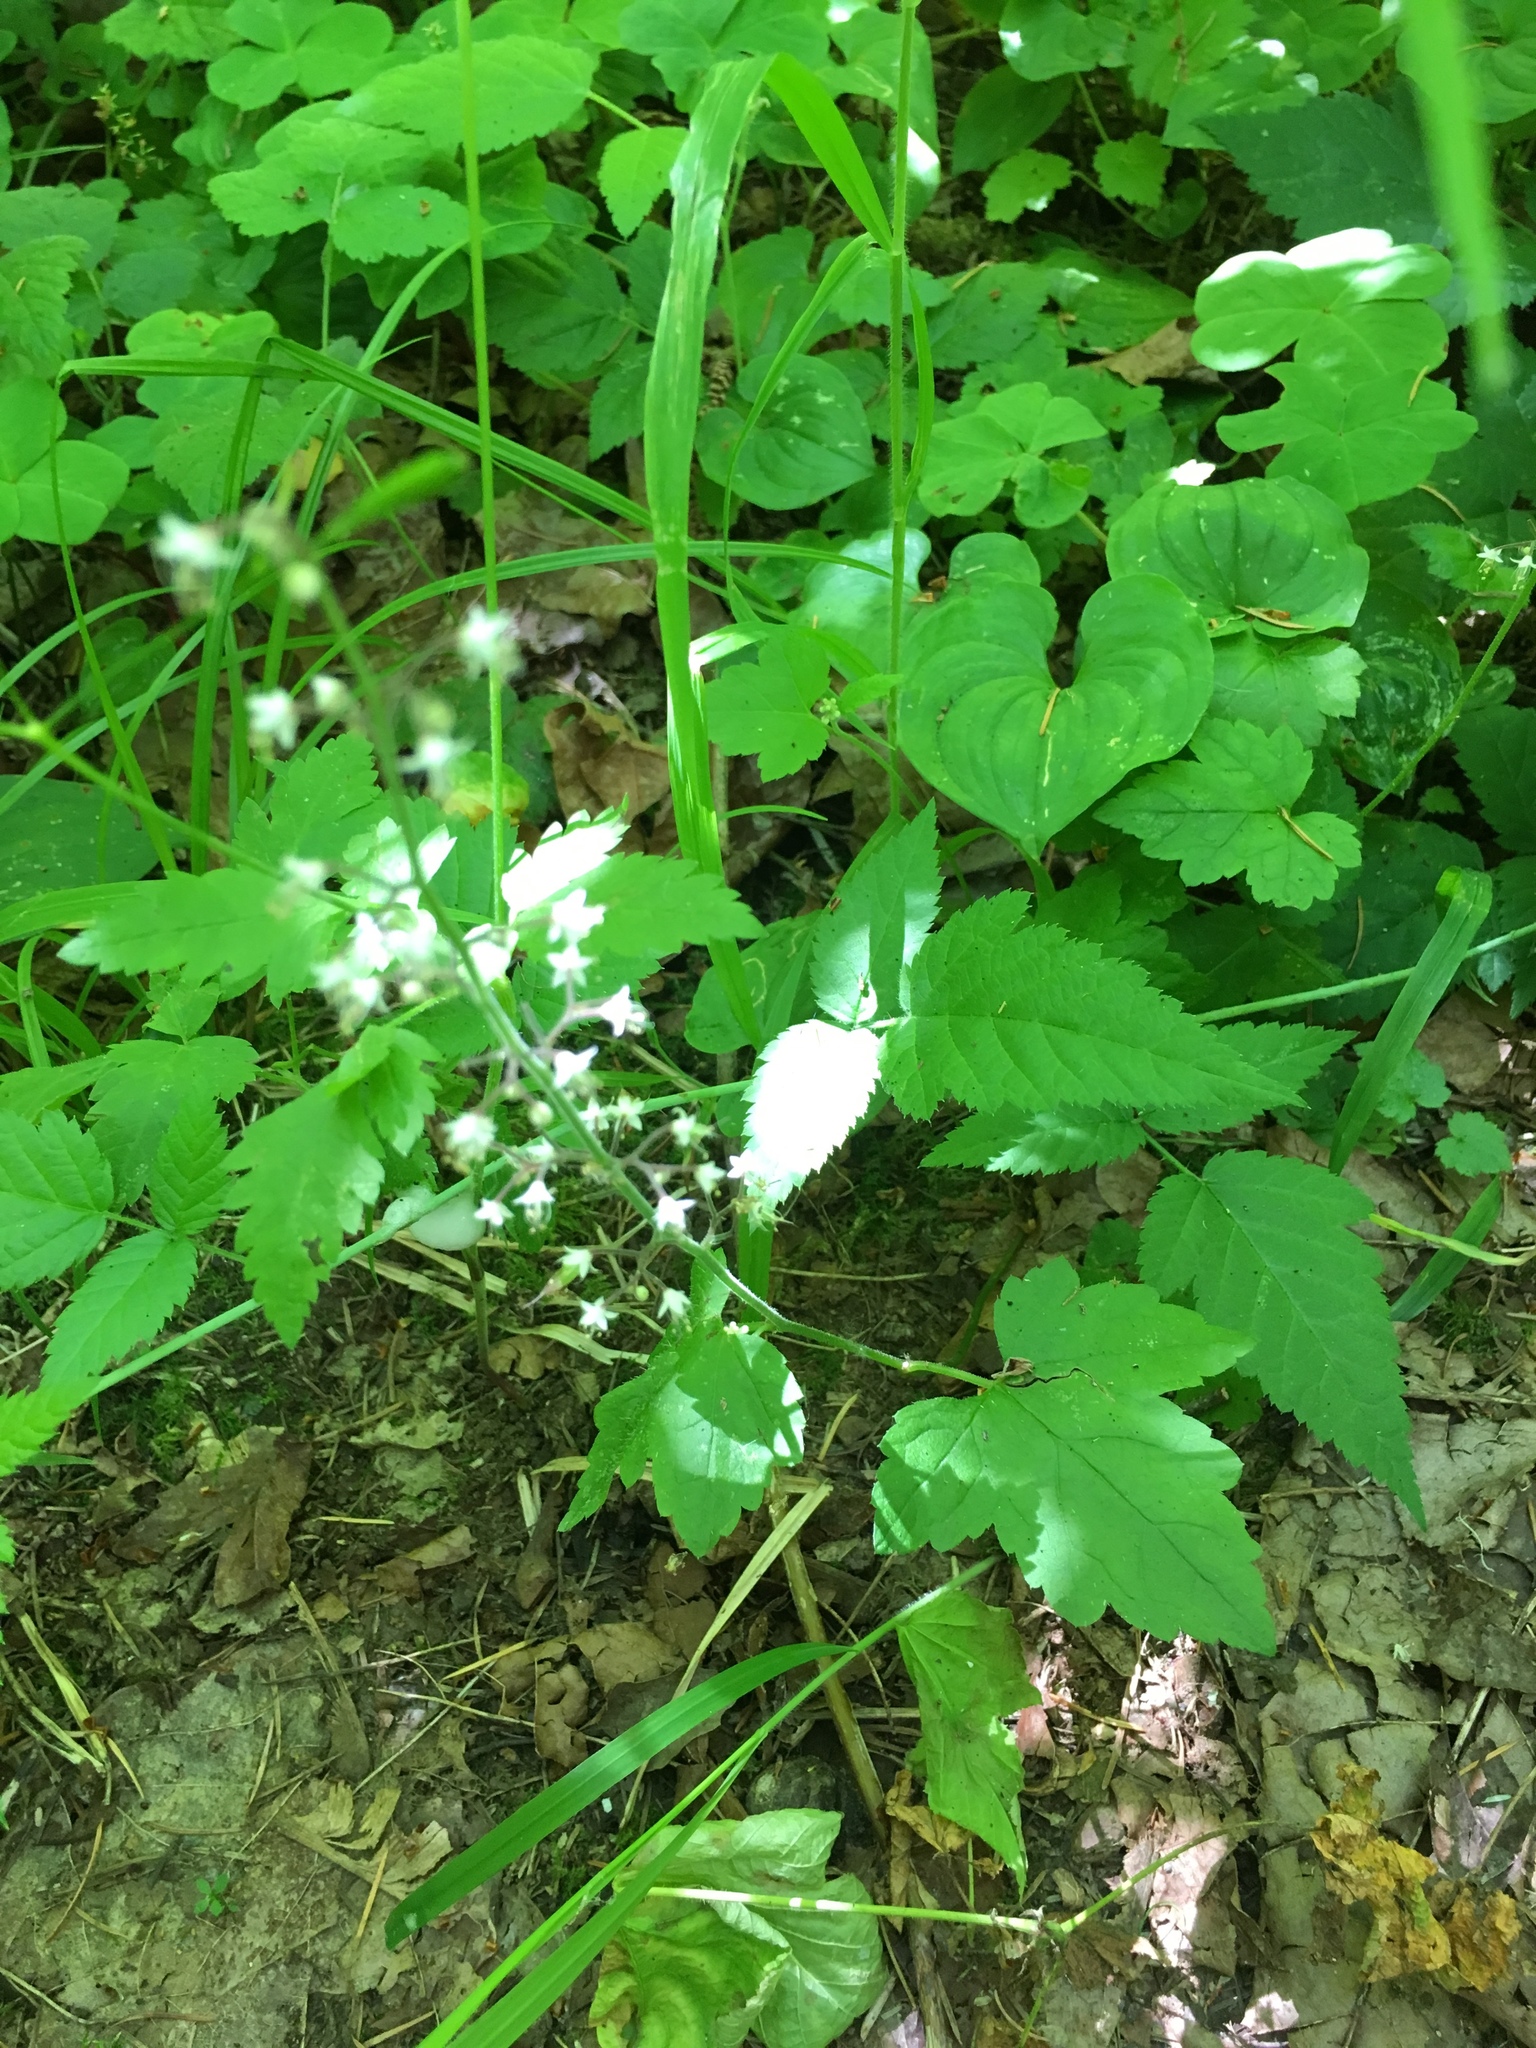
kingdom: Plantae
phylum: Tracheophyta
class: Magnoliopsida
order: Saxifragales
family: Saxifragaceae
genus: Tiarella
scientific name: Tiarella trifoliata
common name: Sugar-scoop
